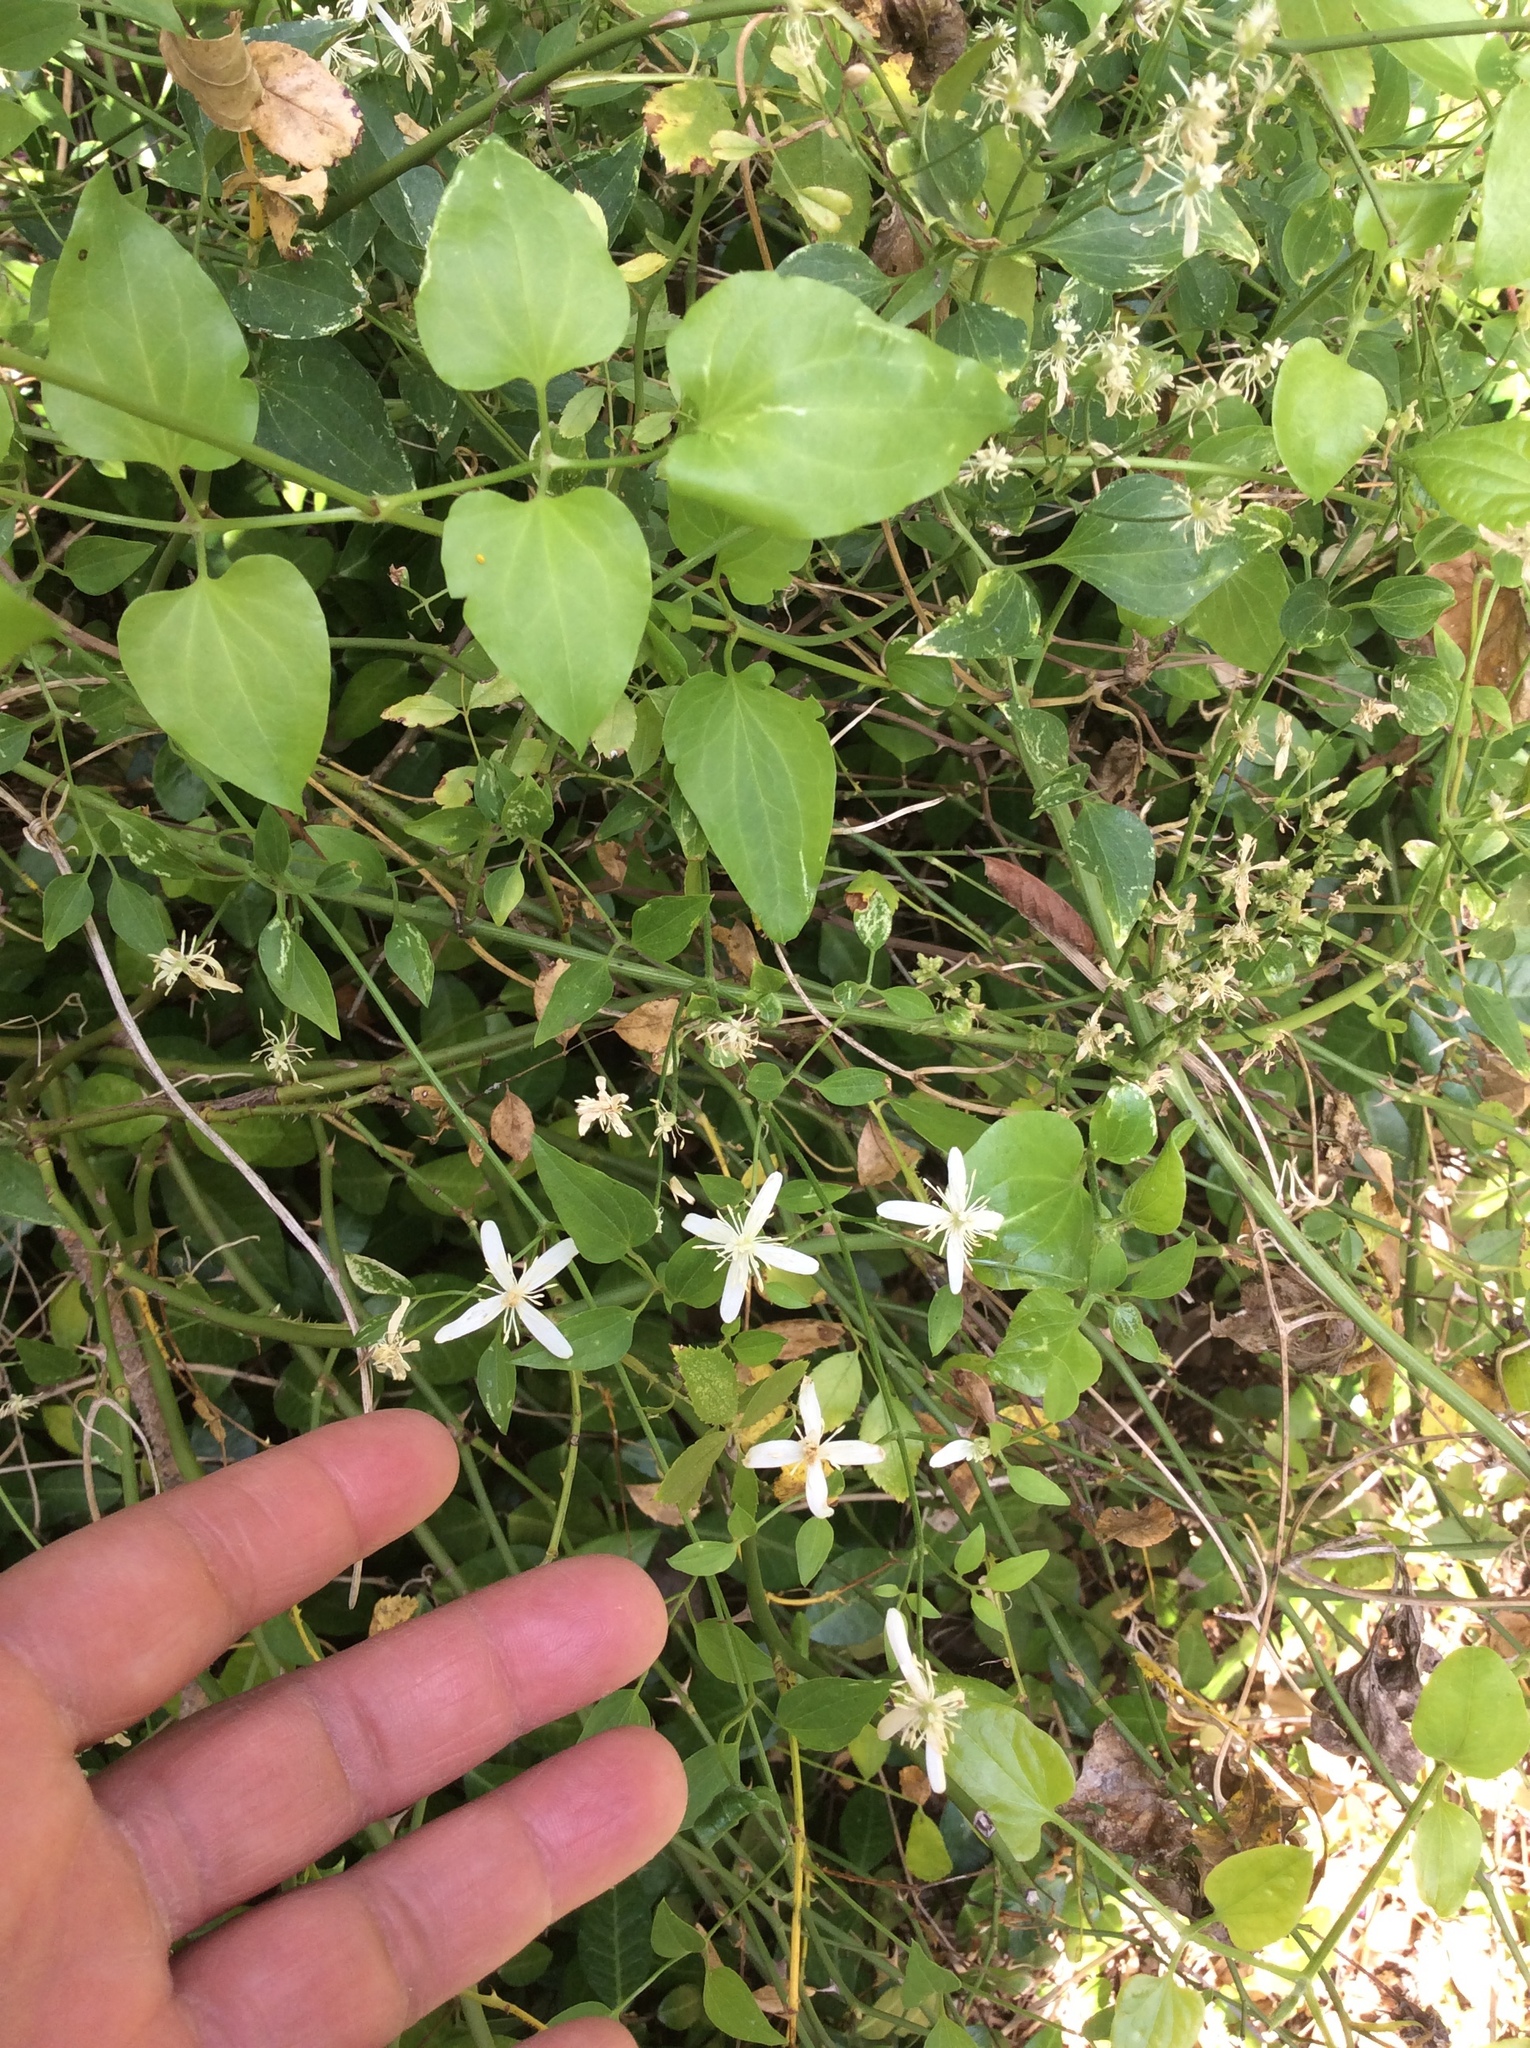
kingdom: Plantae
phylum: Tracheophyta
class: Magnoliopsida
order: Ranunculales
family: Ranunculaceae
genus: Clematis
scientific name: Clematis terniflora
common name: Sweet autumn clematis
